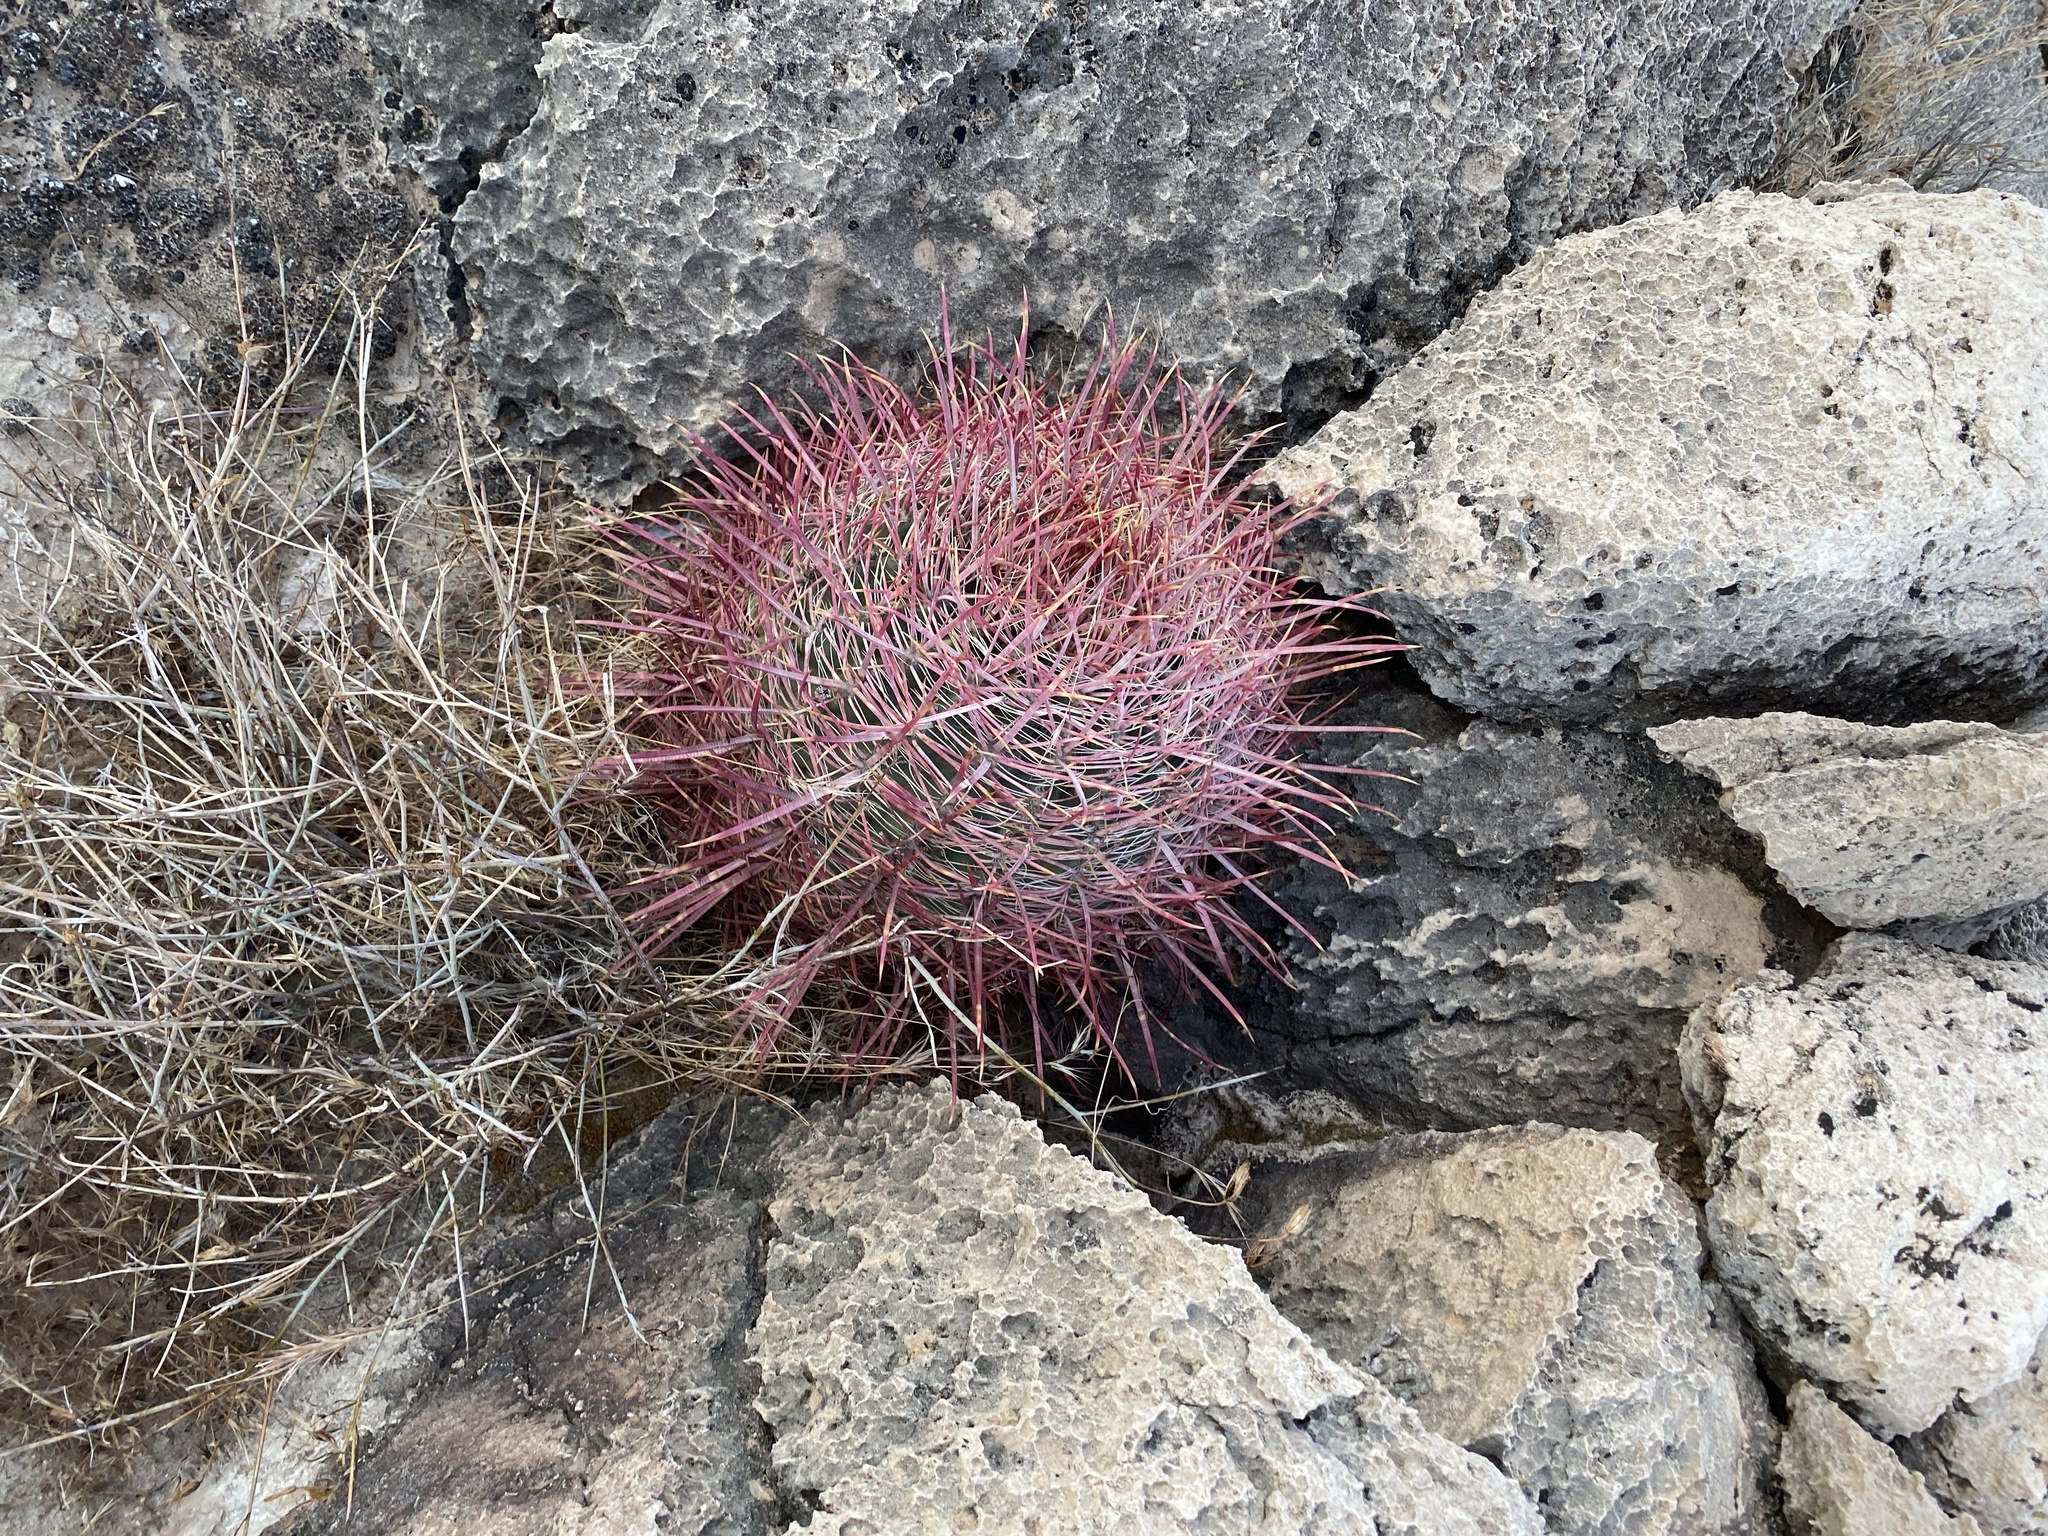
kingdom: Plantae
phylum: Tracheophyta
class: Magnoliopsida
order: Caryophyllales
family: Cactaceae
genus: Ferocactus
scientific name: Ferocactus cylindraceus
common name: California barrel cactus
